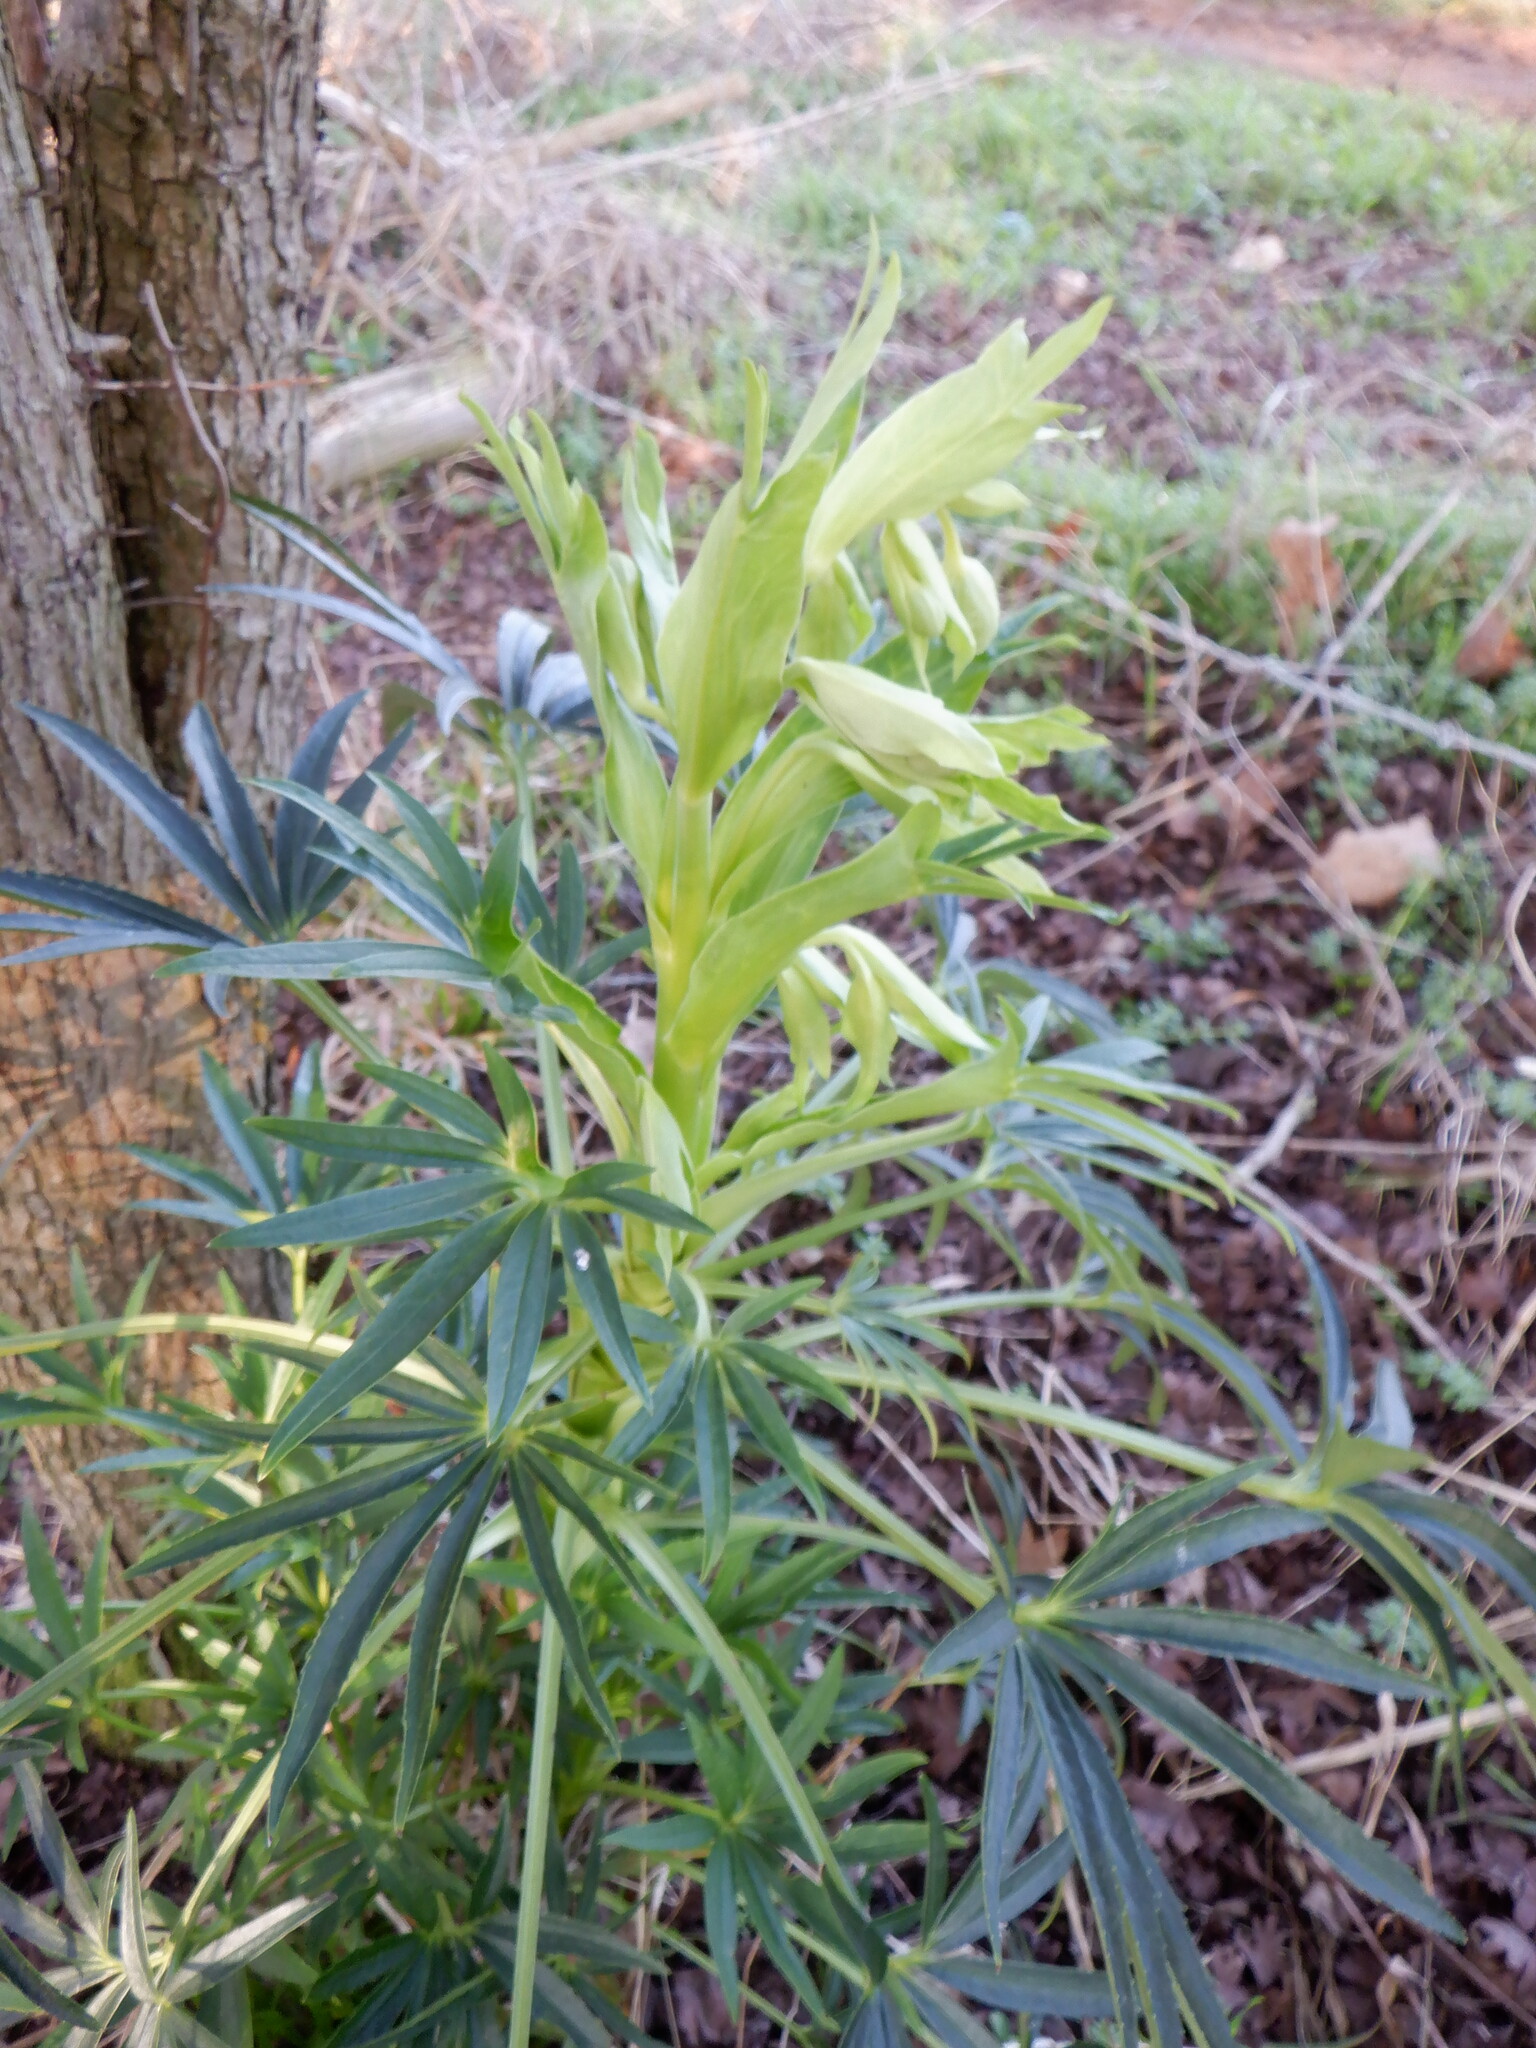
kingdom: Plantae
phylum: Tracheophyta
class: Magnoliopsida
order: Ranunculales
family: Ranunculaceae
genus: Helleborus
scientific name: Helleborus foetidus
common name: Stinking hellebore
